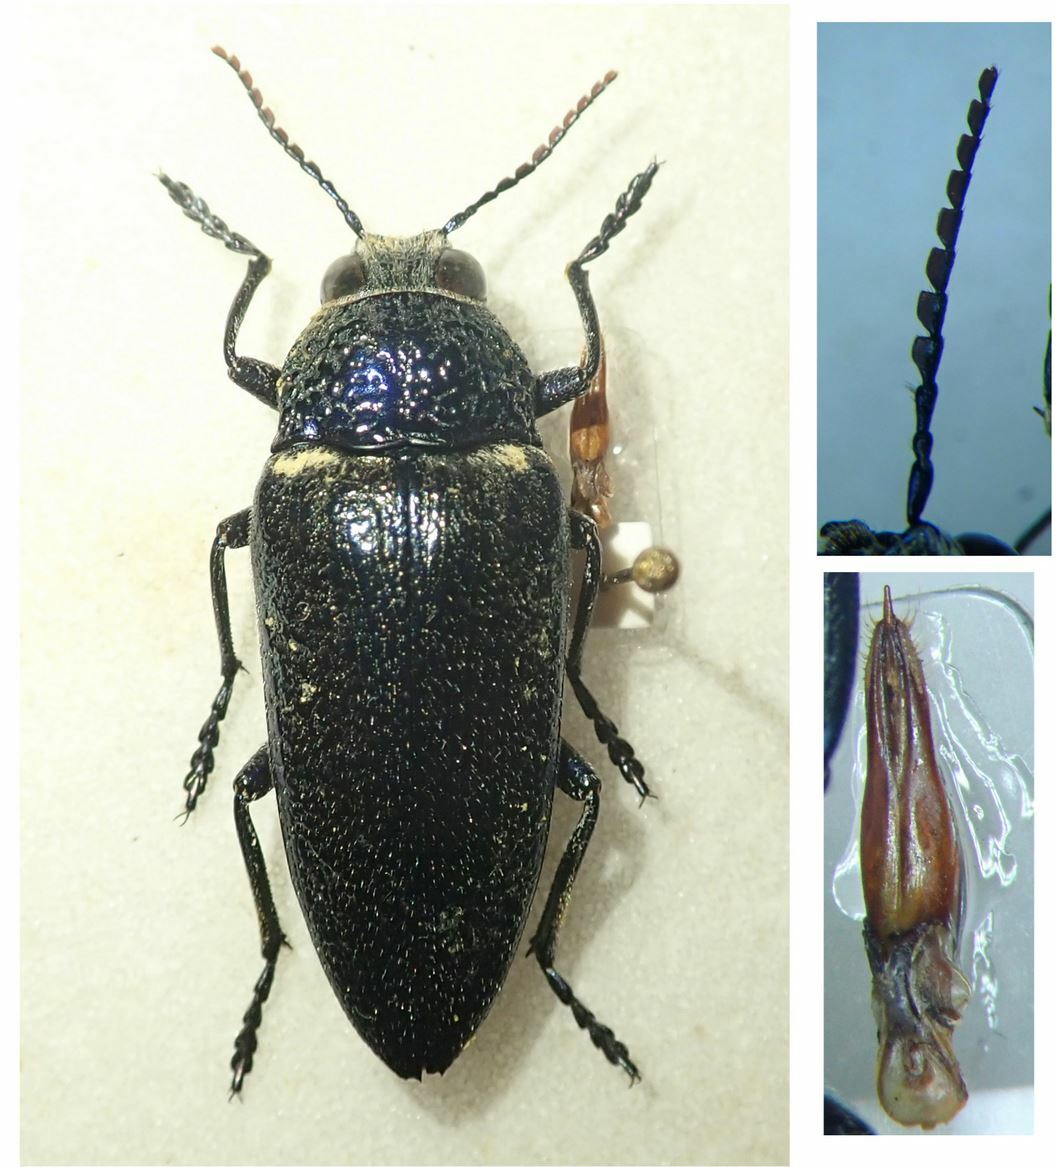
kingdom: Animalia
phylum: Arthropoda
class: Insecta
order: Coleoptera
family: Buprestidae
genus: Gyascutus
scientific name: Gyascutus caelatus
